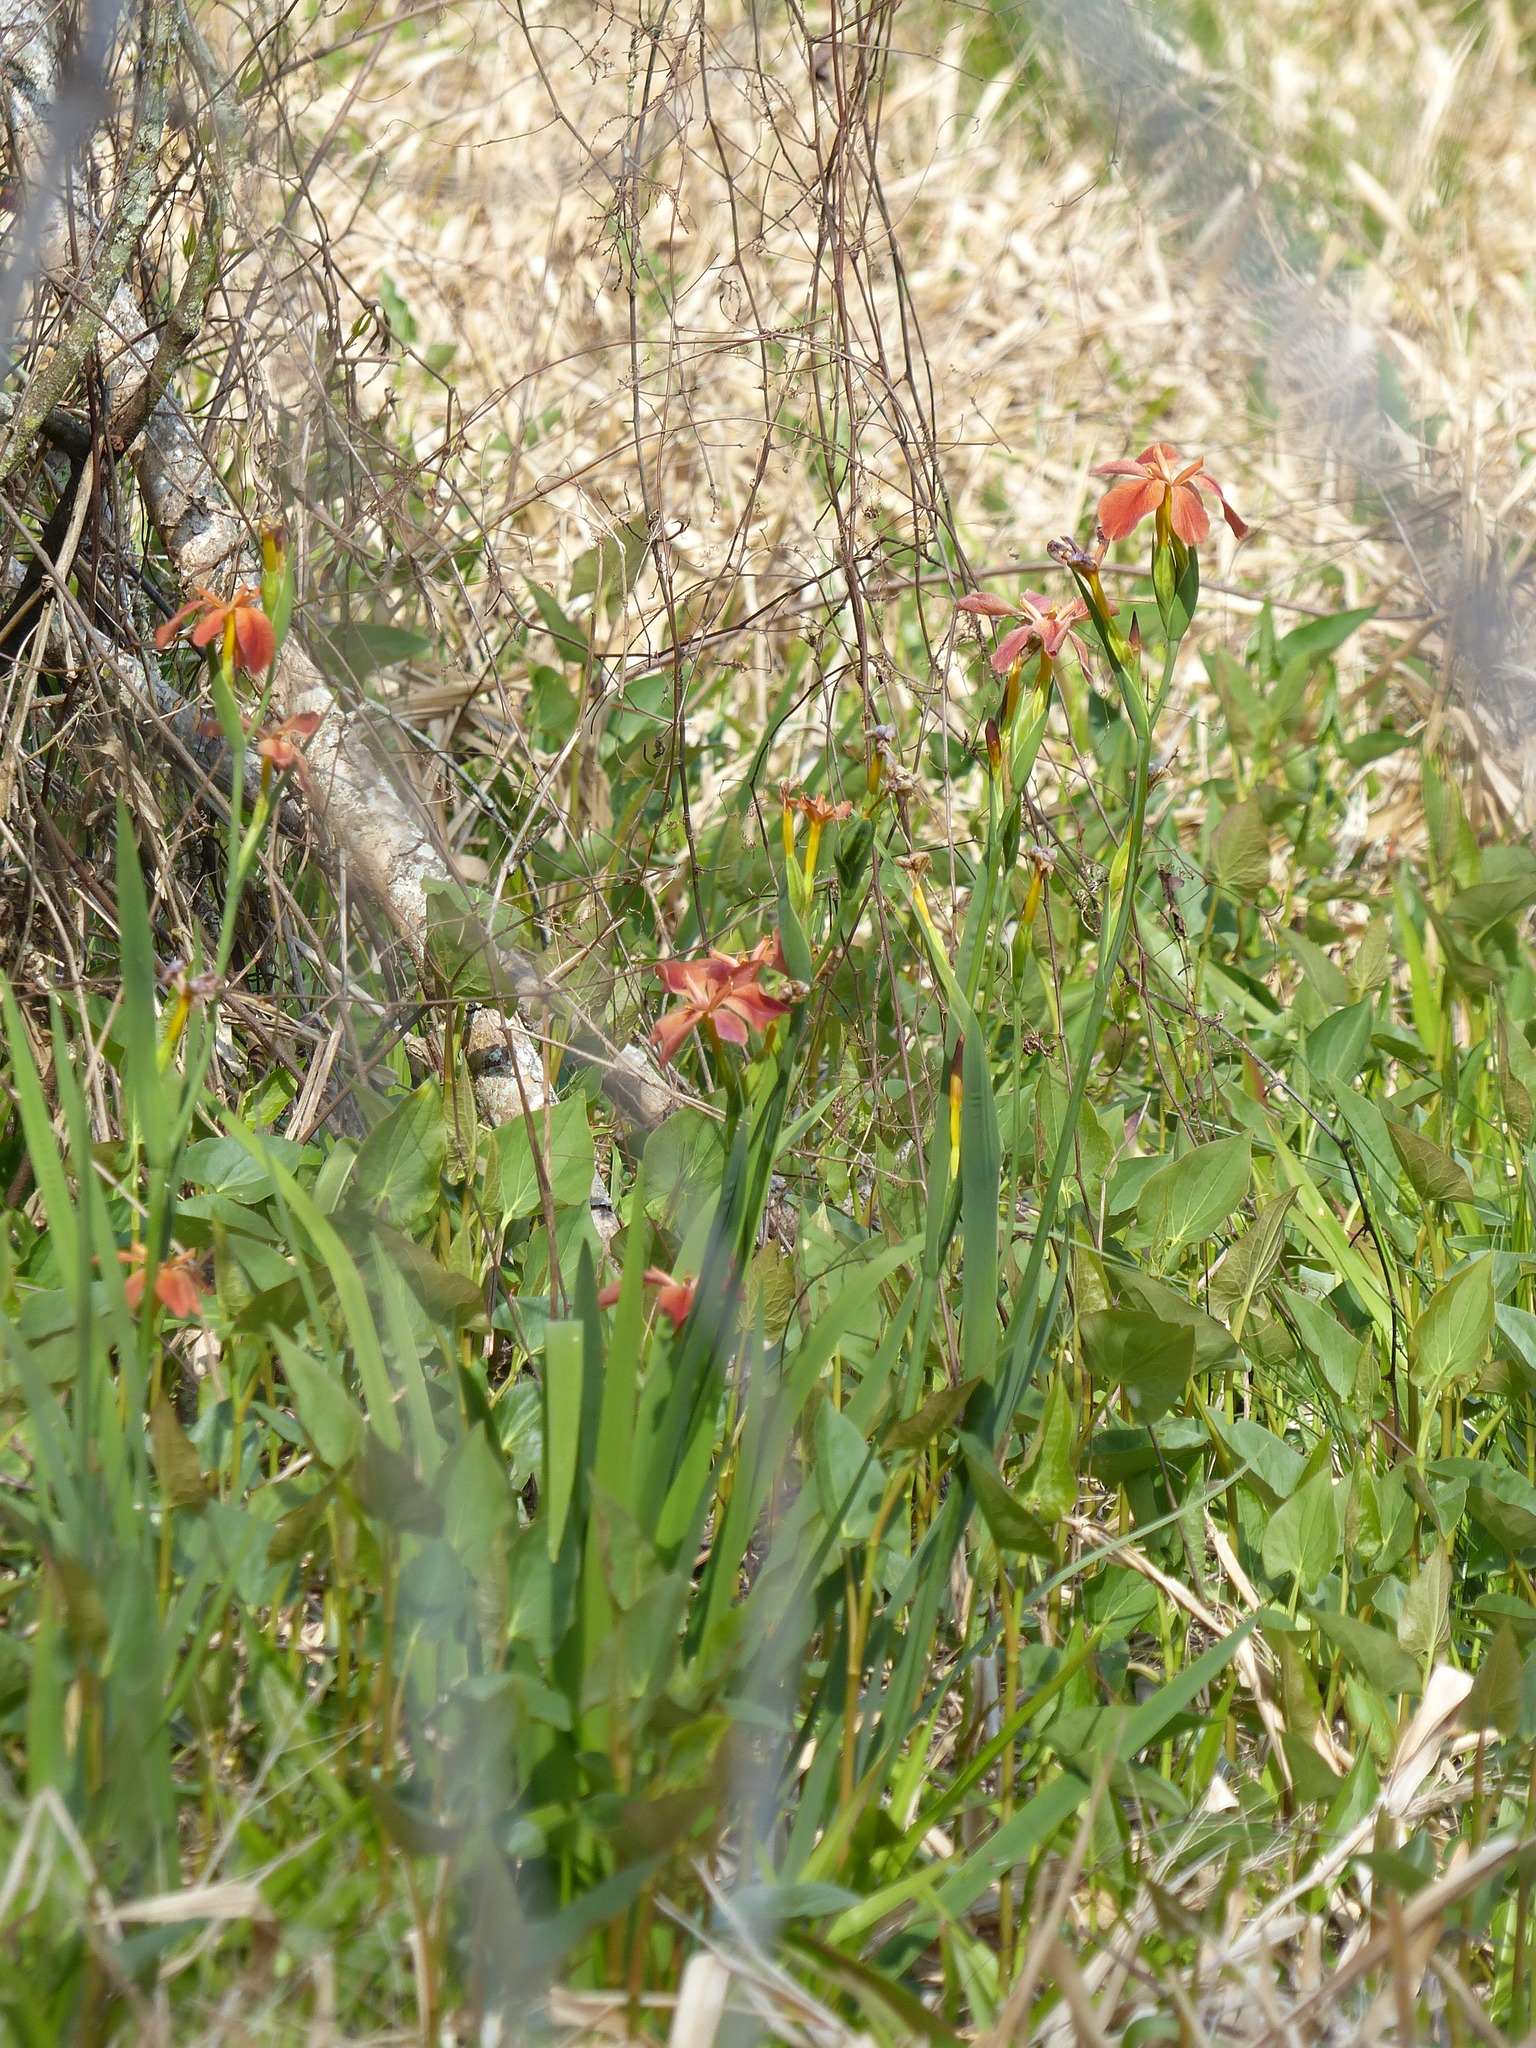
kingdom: Plantae
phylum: Tracheophyta
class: Liliopsida
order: Asparagales
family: Iridaceae
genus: Iris
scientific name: Iris fulva
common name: Copper iris
